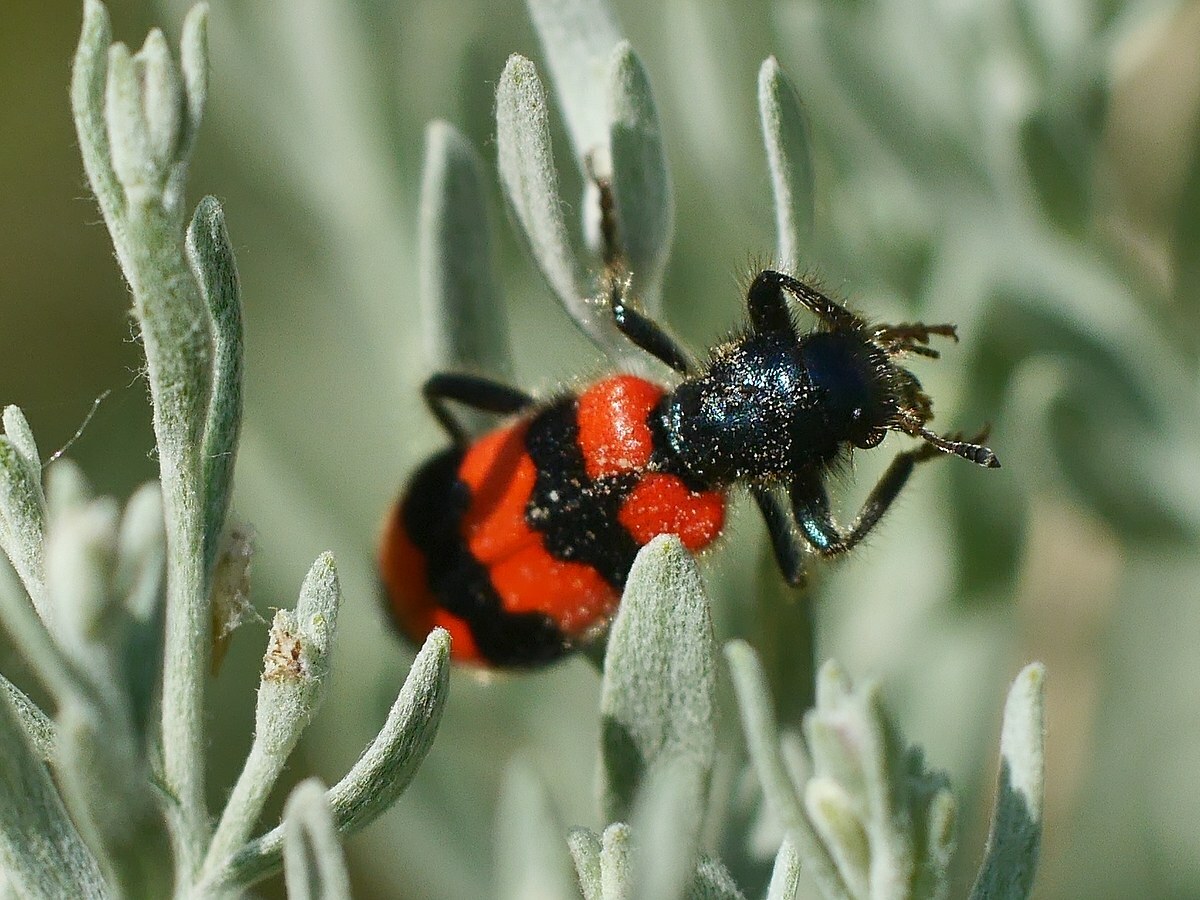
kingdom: Animalia
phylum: Arthropoda
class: Insecta
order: Coleoptera
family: Cleridae
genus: Trichodes
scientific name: Trichodes apiarius
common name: Bee-eating beetle
